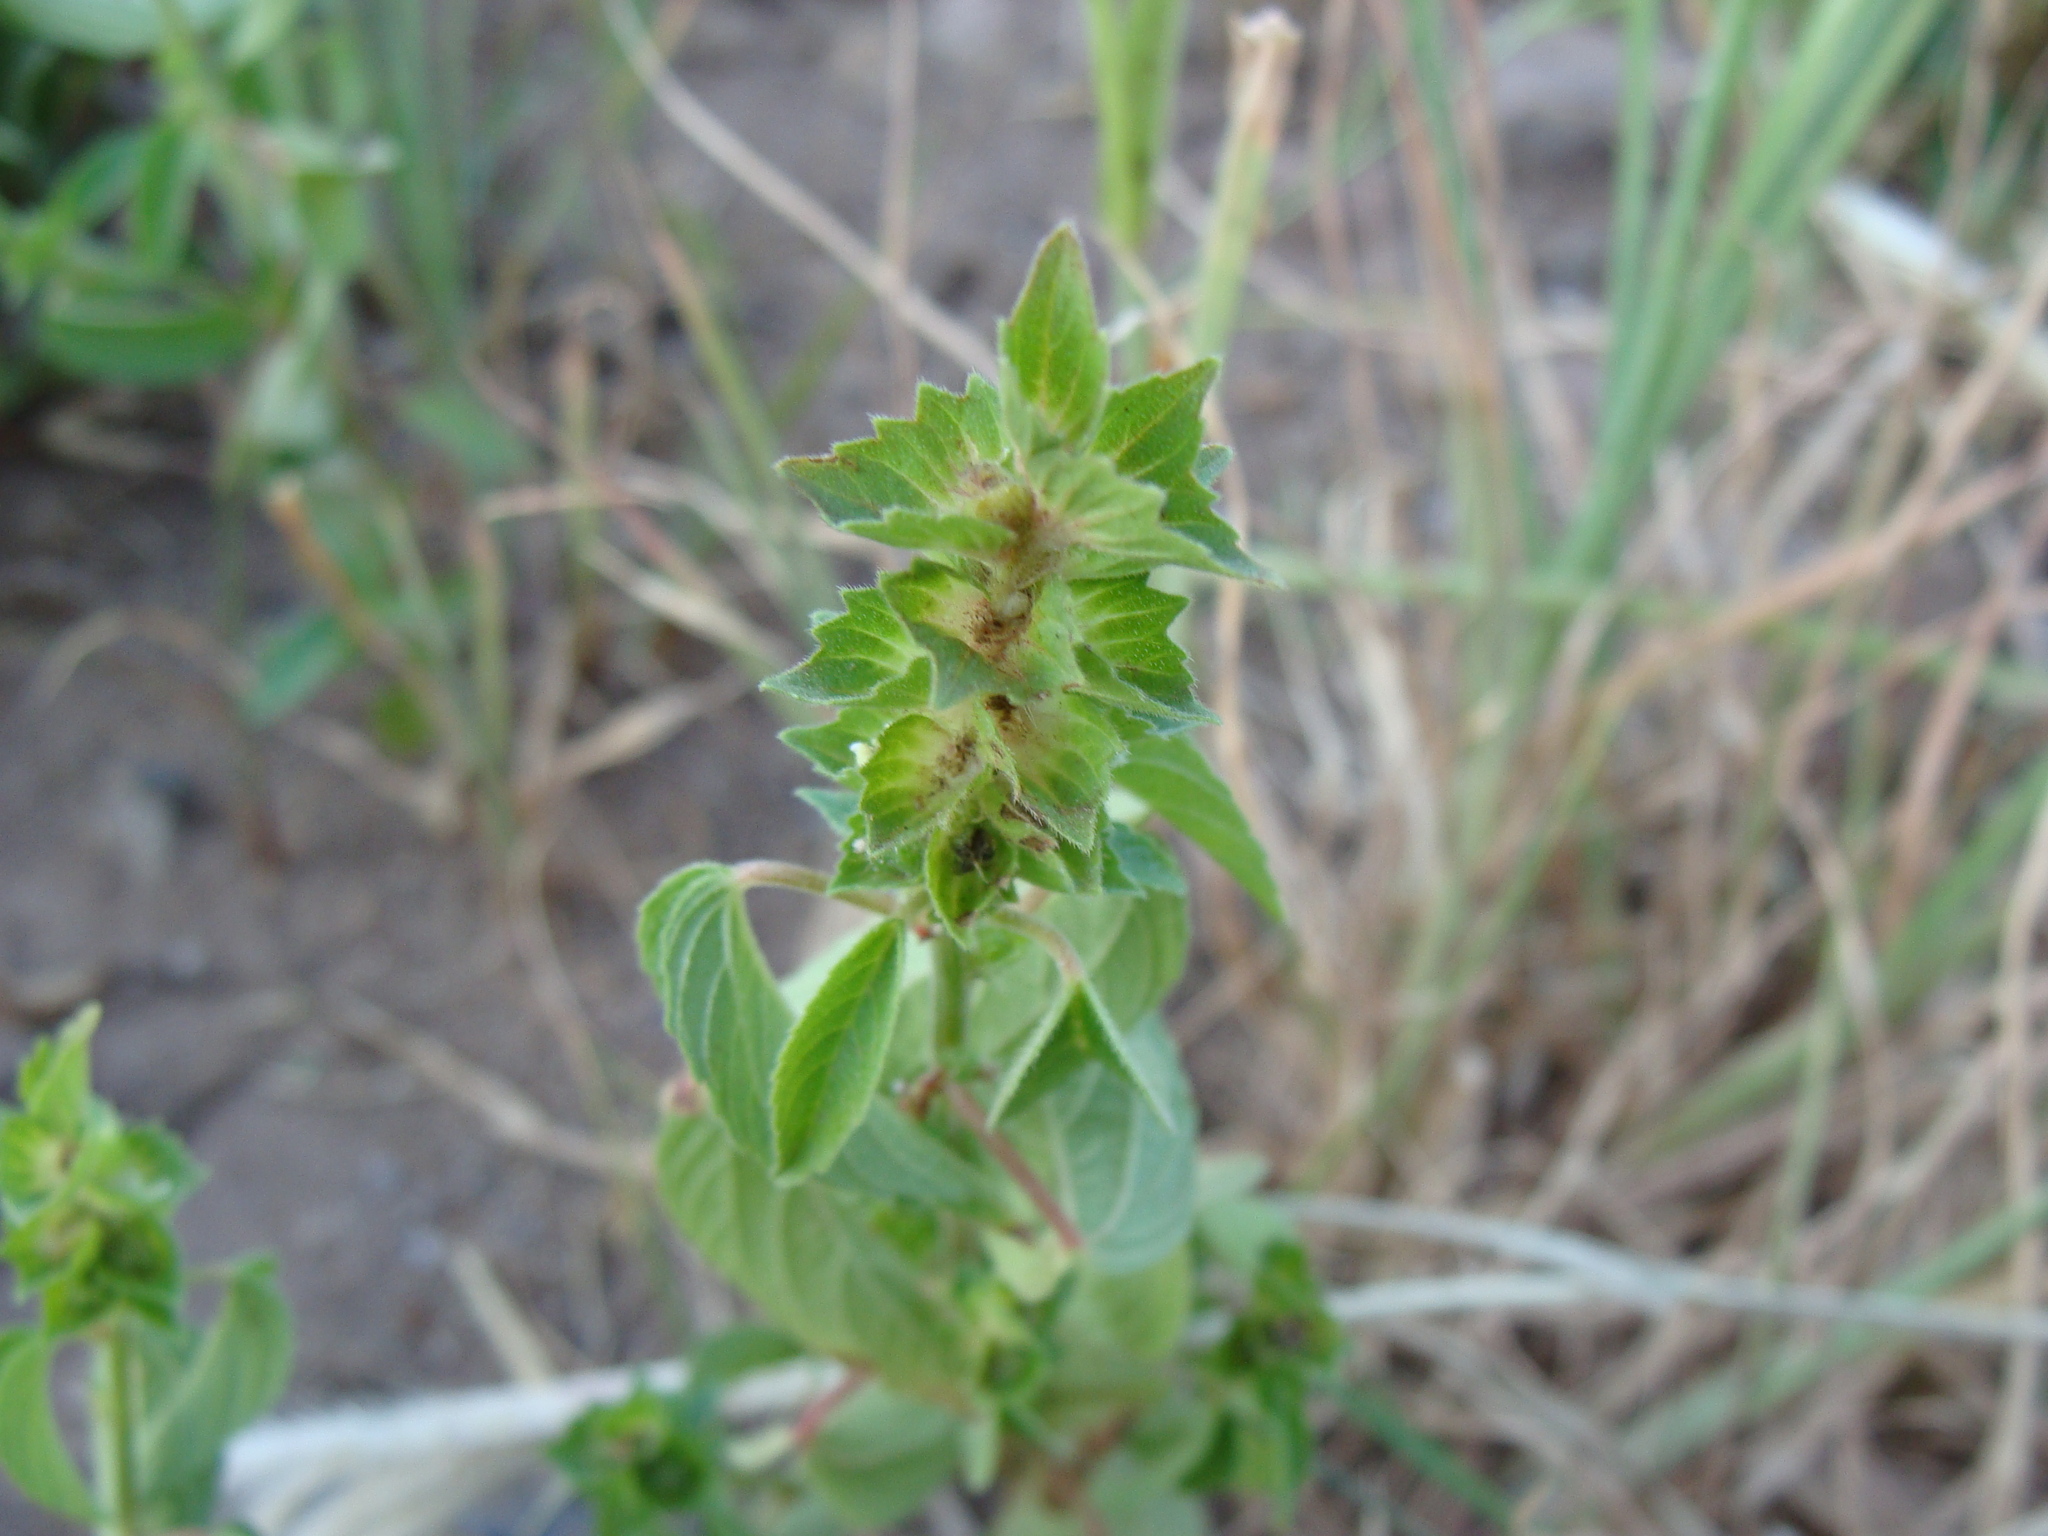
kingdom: Plantae
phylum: Tracheophyta
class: Magnoliopsida
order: Malpighiales
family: Euphorbiaceae
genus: Acalypha
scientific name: Acalypha neomexicana
